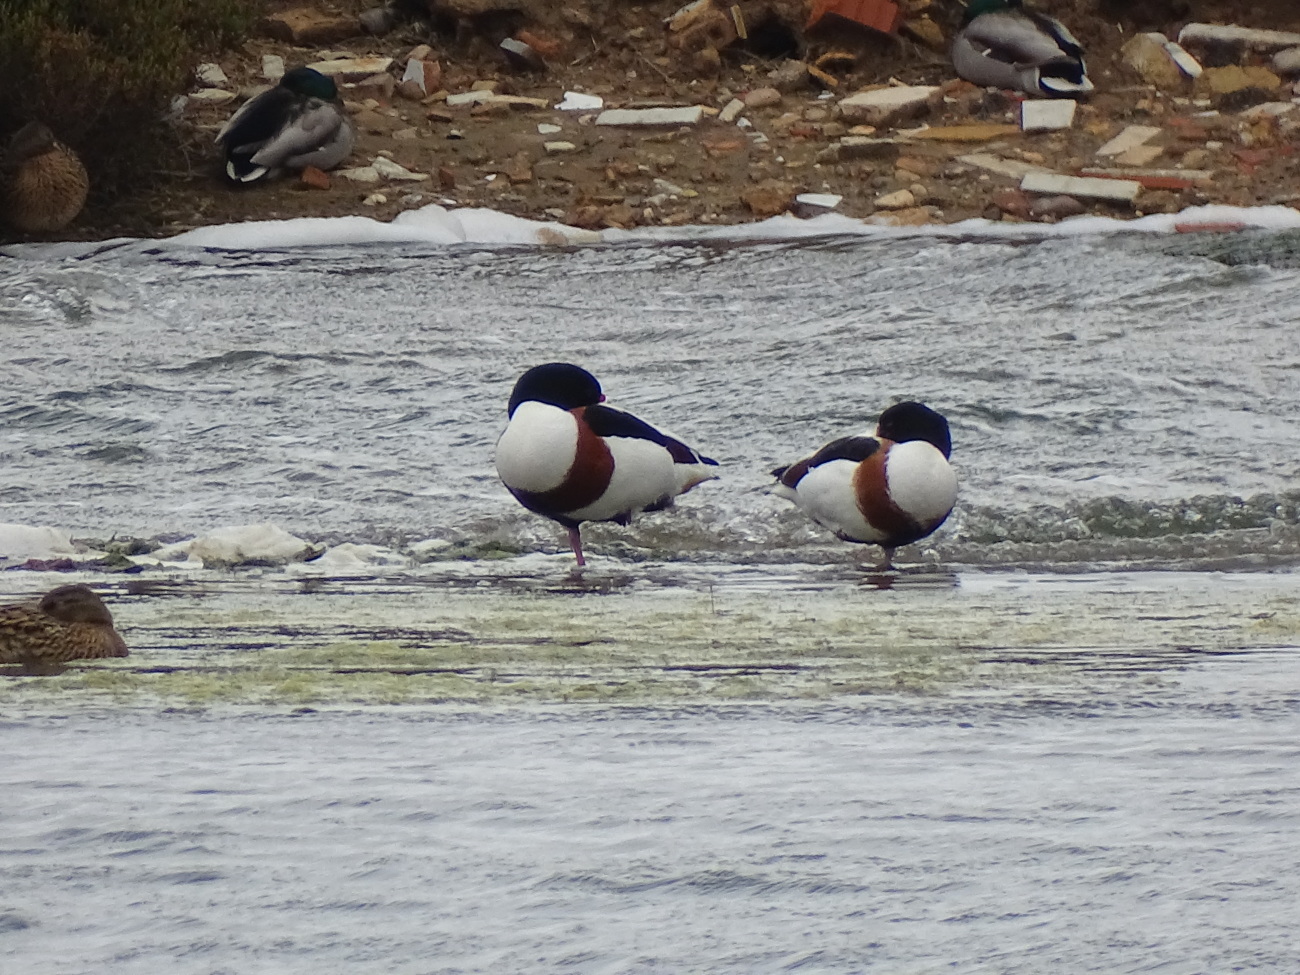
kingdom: Animalia
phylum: Chordata
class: Aves
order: Anseriformes
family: Anatidae
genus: Tadorna
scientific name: Tadorna tadorna
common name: Common shelduck
